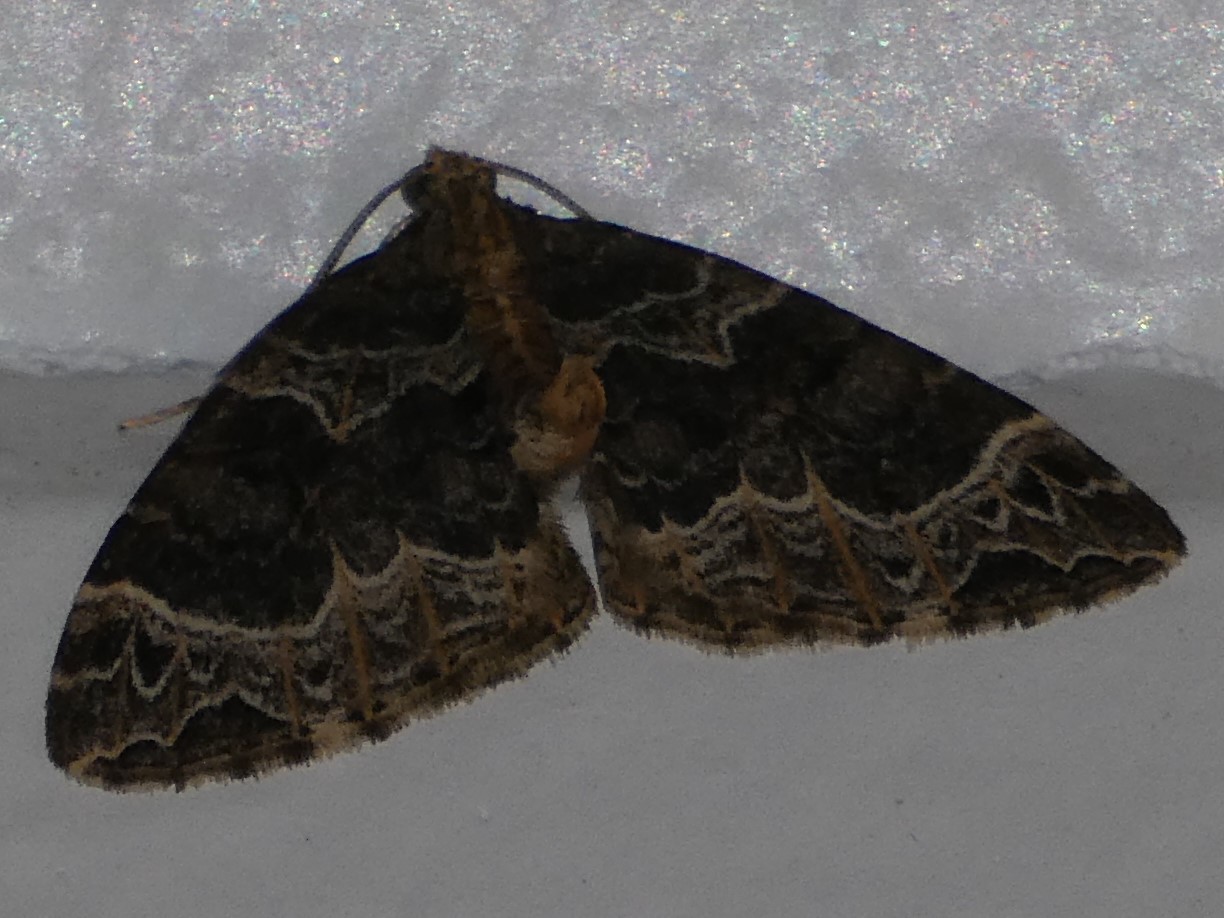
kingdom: Animalia
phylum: Arthropoda
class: Insecta
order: Lepidoptera
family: Geometridae
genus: Ecliptopera
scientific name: Ecliptopera silaceata
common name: Small phoenix
